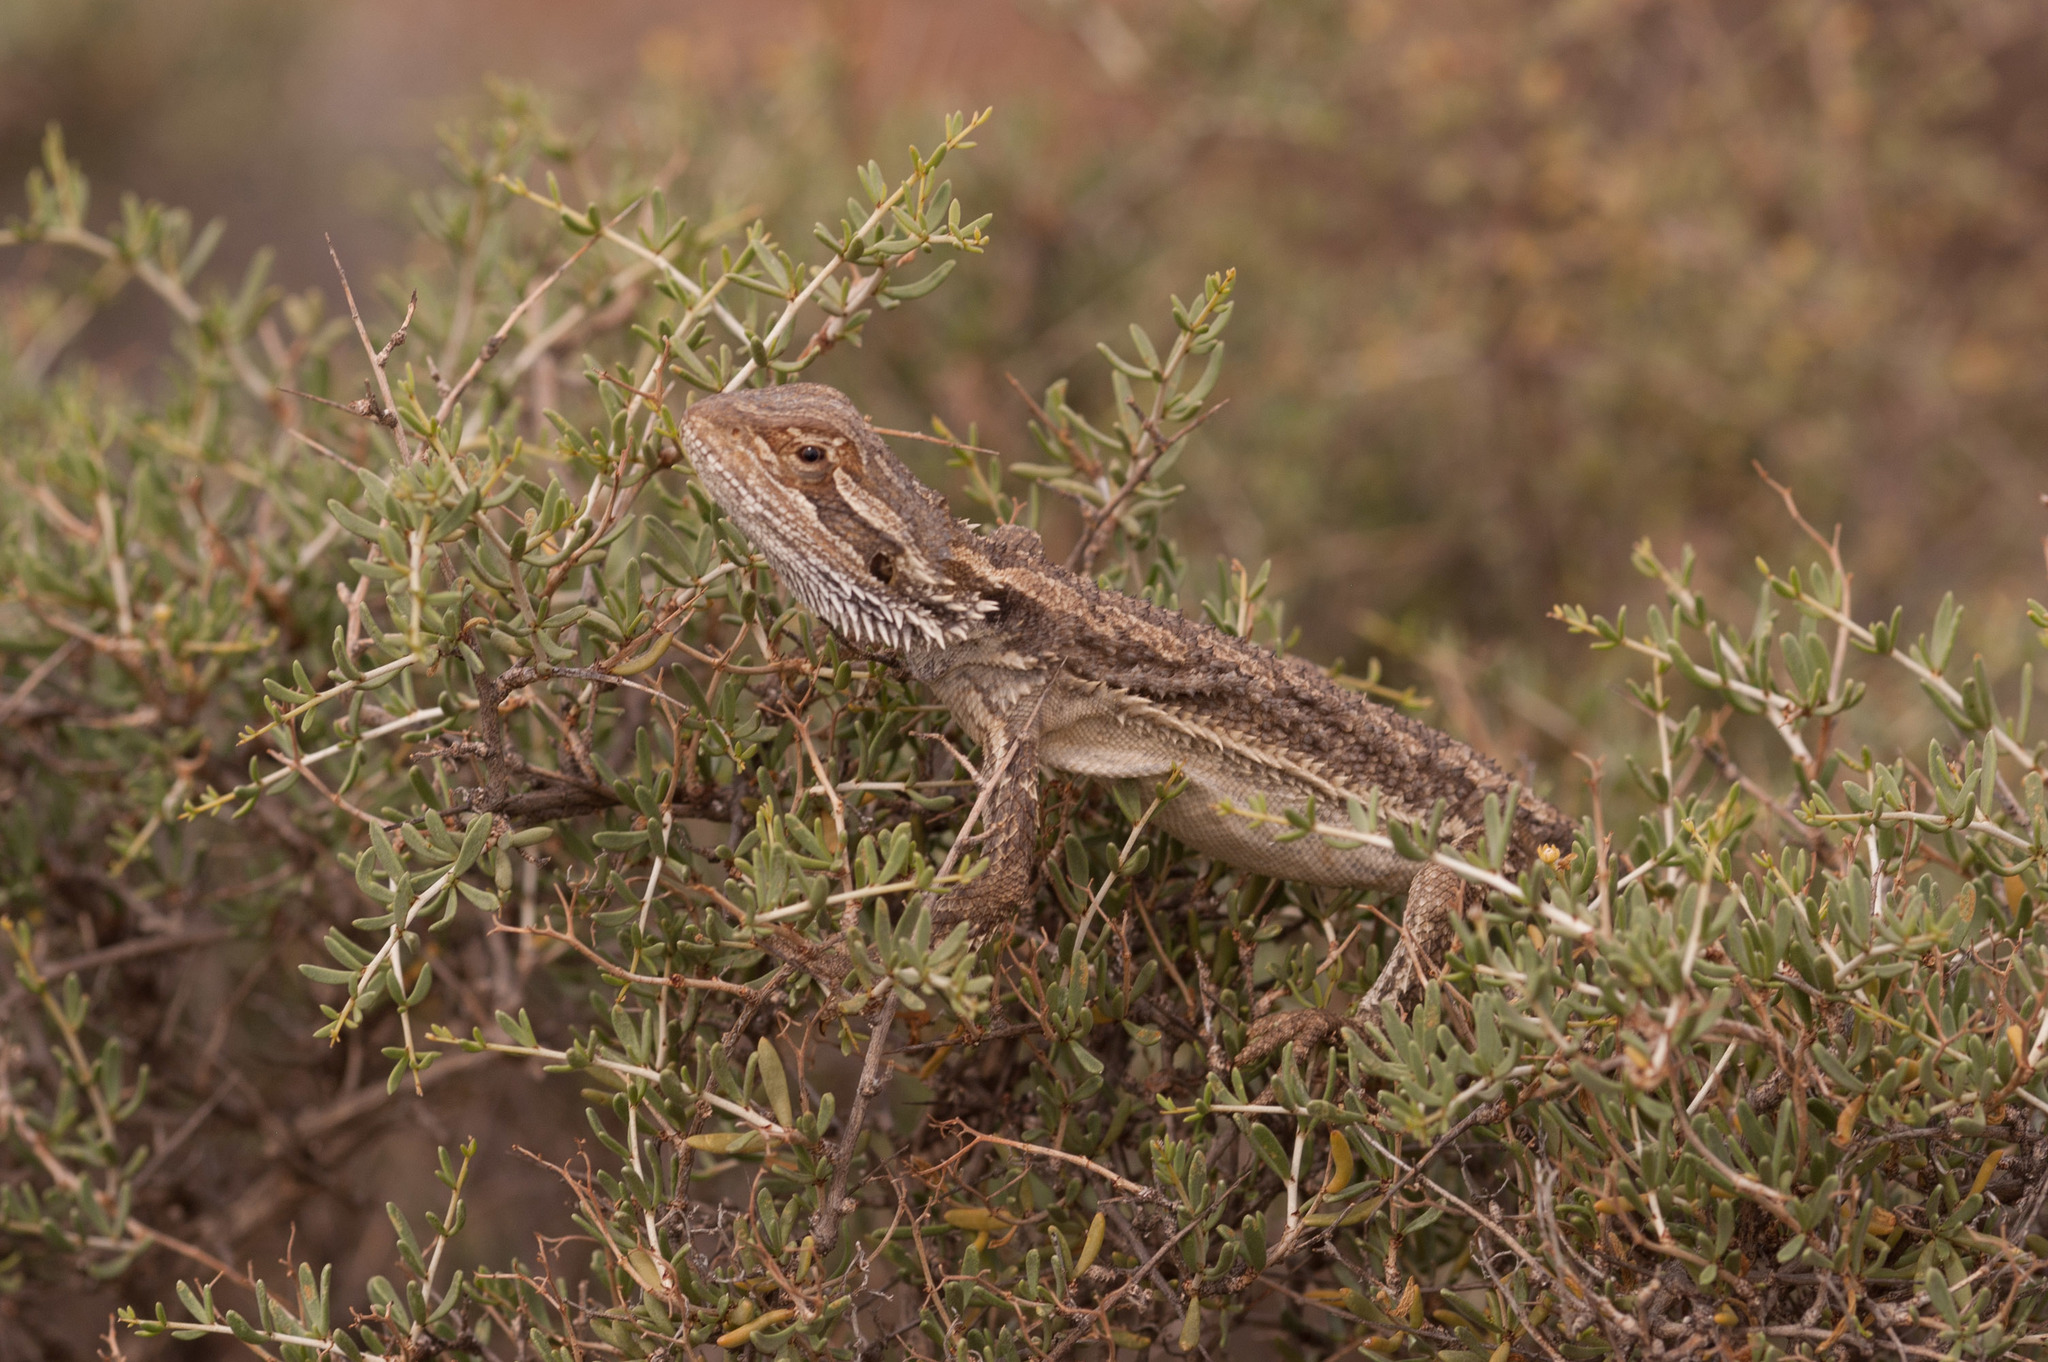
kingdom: Animalia
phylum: Chordata
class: Squamata
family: Agamidae
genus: Pogona
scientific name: Pogona vitticeps
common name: Central bearded dragon
